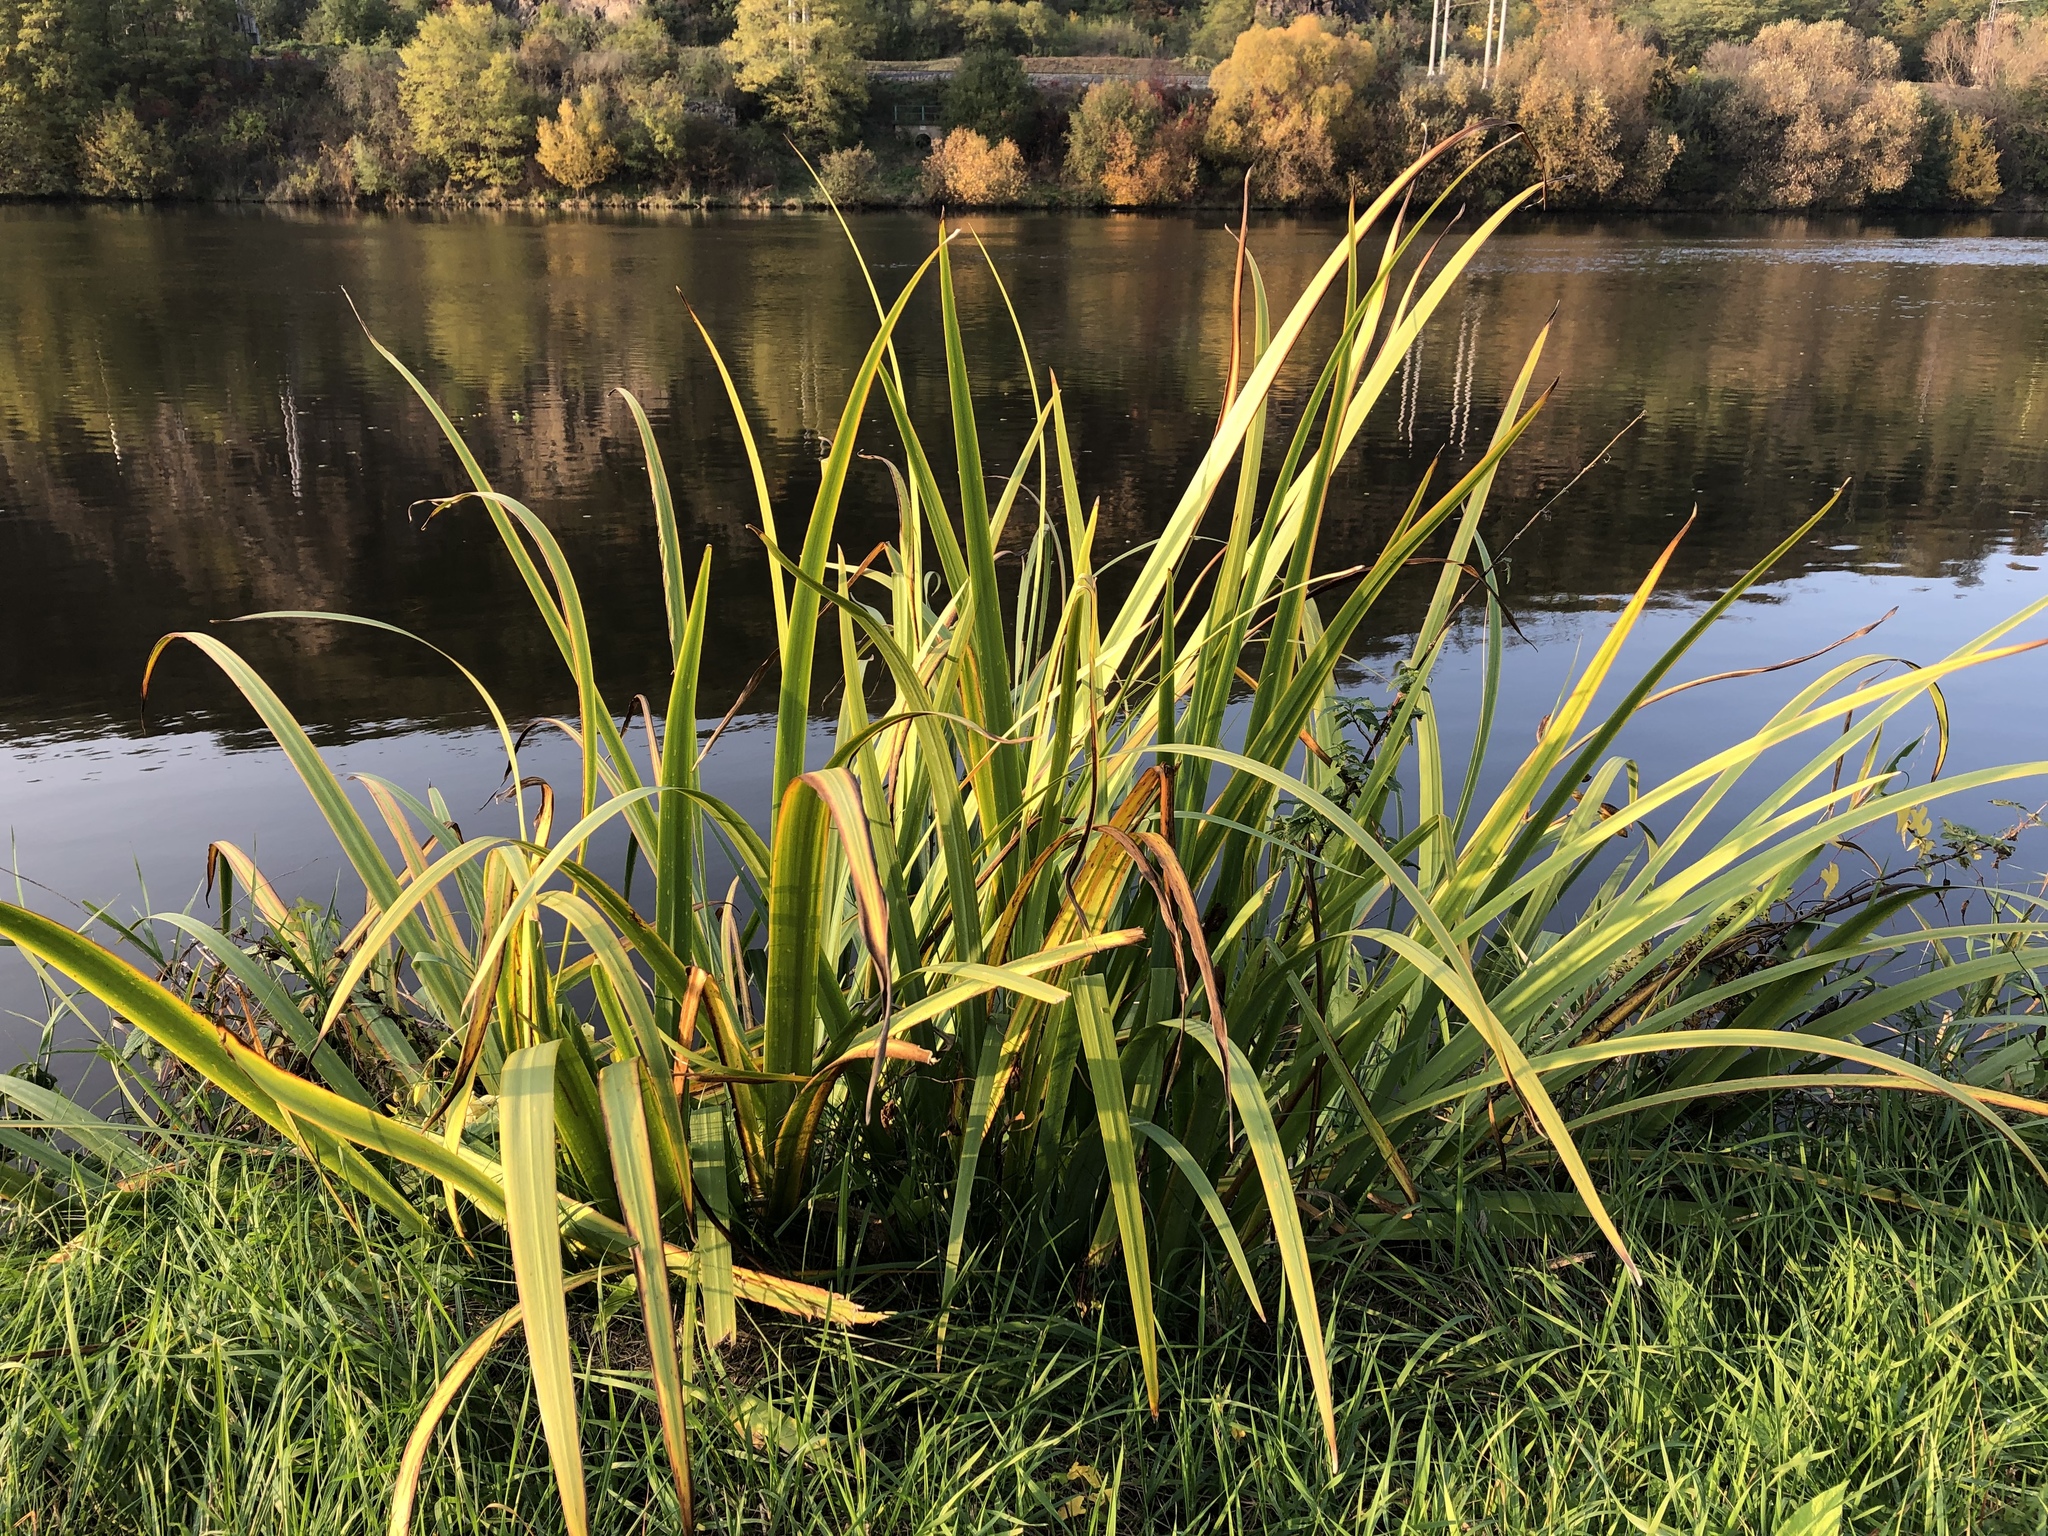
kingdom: Plantae
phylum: Tracheophyta
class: Liliopsida
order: Asparagales
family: Iridaceae
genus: Iris
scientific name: Iris pseudacorus
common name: Yellow flag
